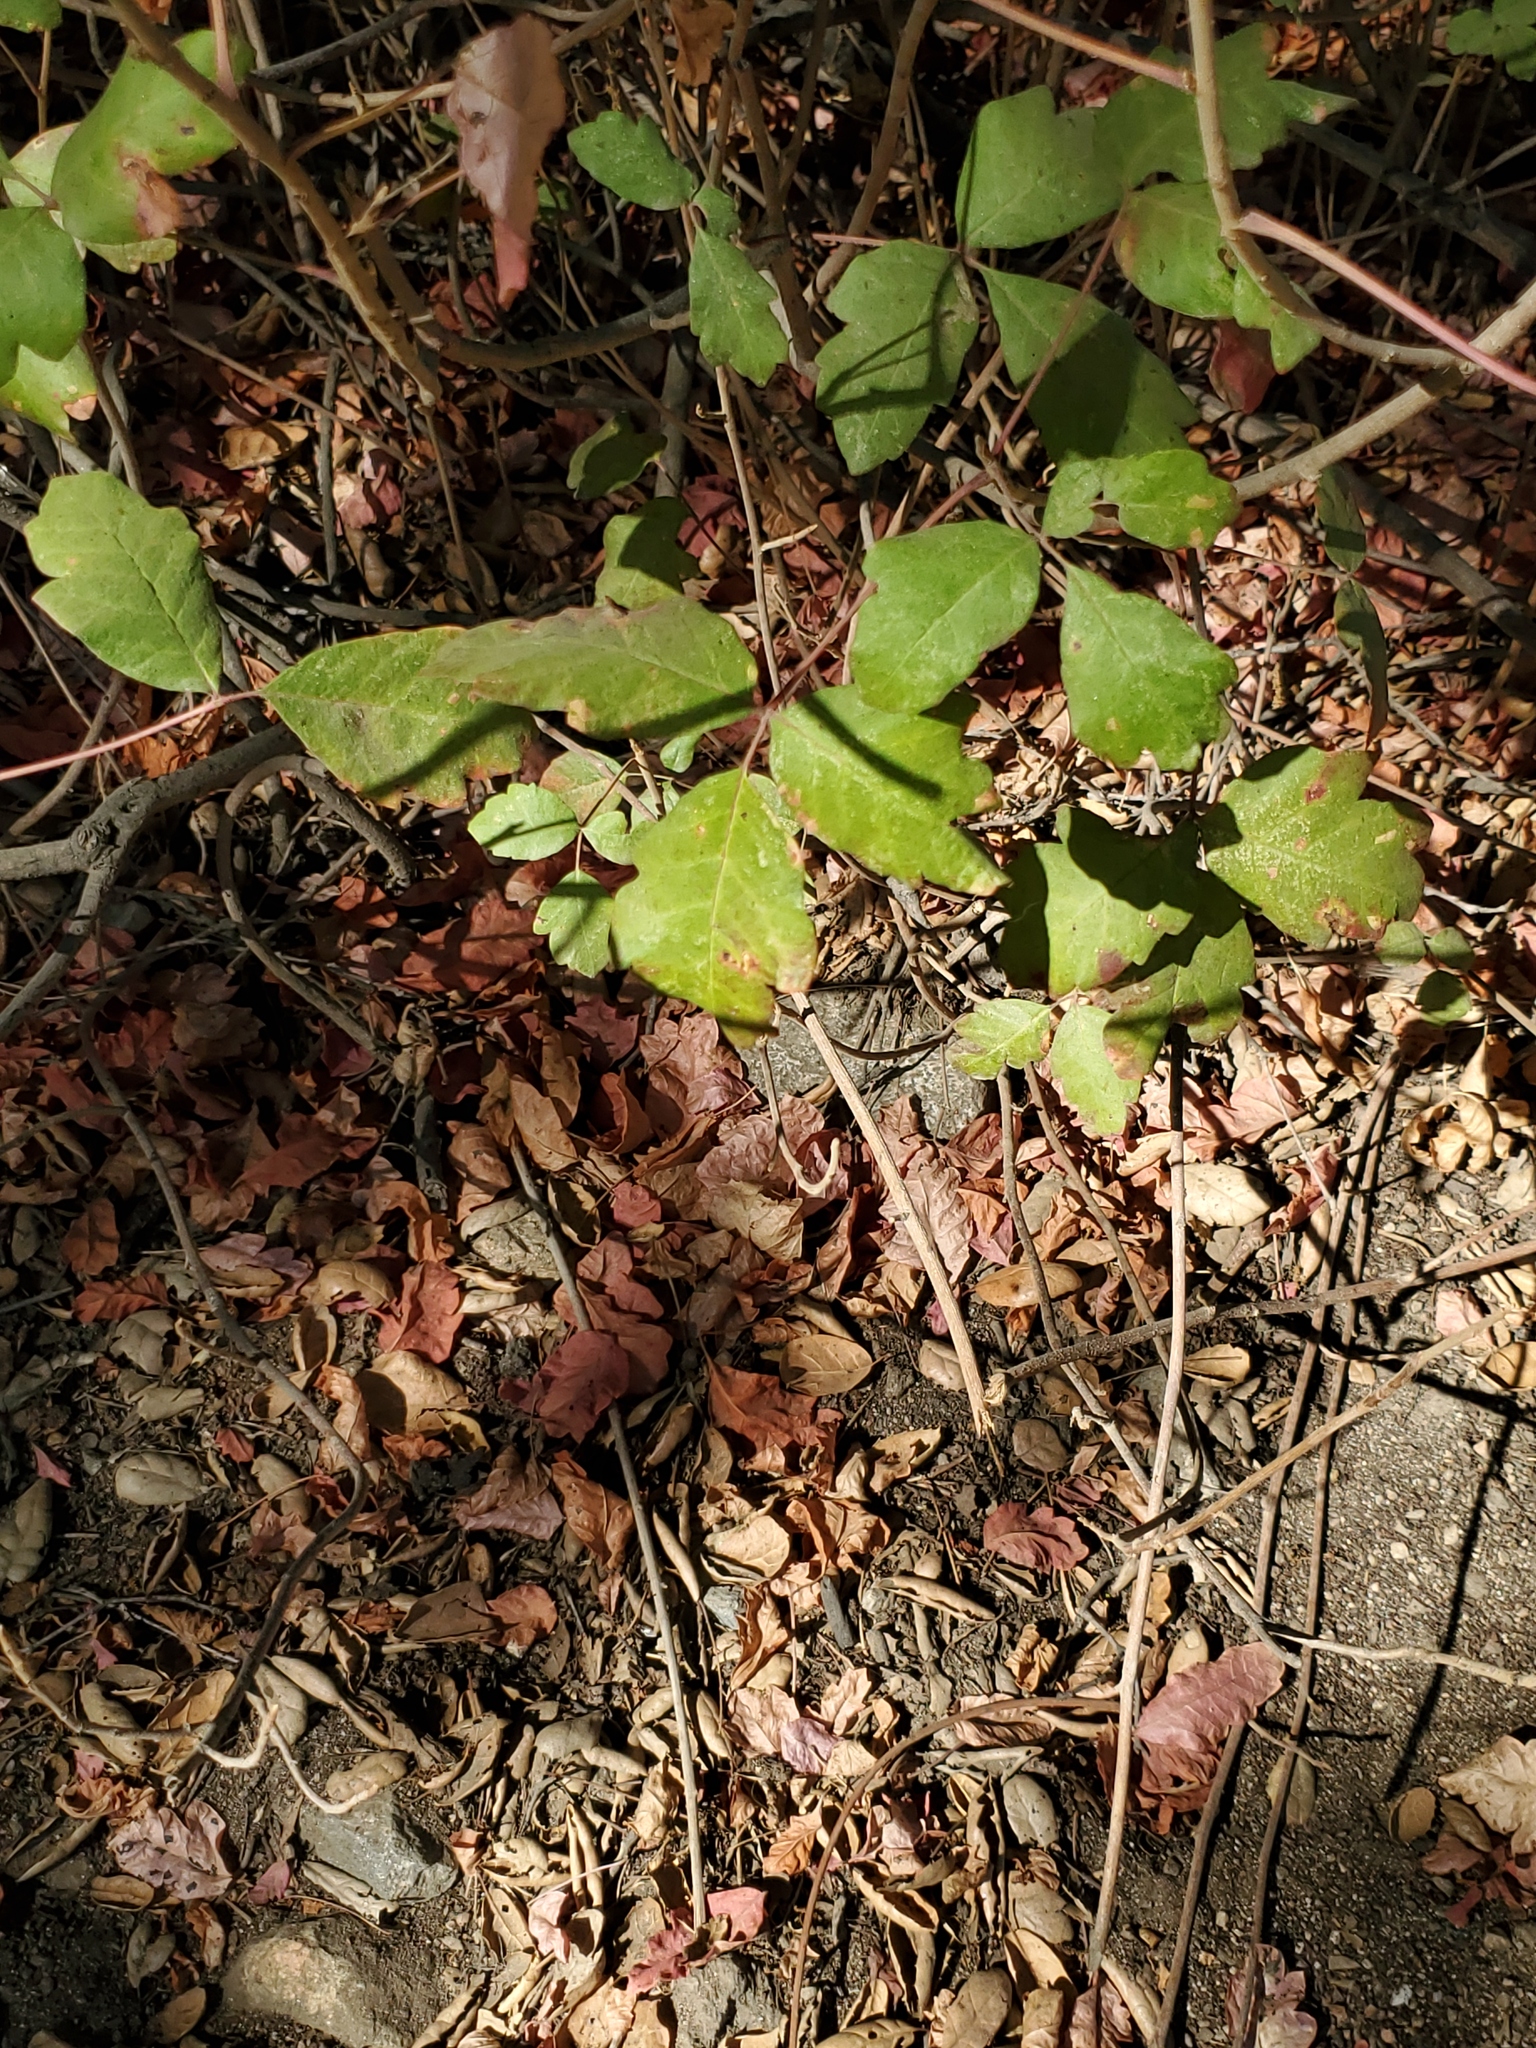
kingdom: Plantae
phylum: Tracheophyta
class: Magnoliopsida
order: Sapindales
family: Anacardiaceae
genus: Toxicodendron
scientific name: Toxicodendron diversilobum
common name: Pacific poison-oak
